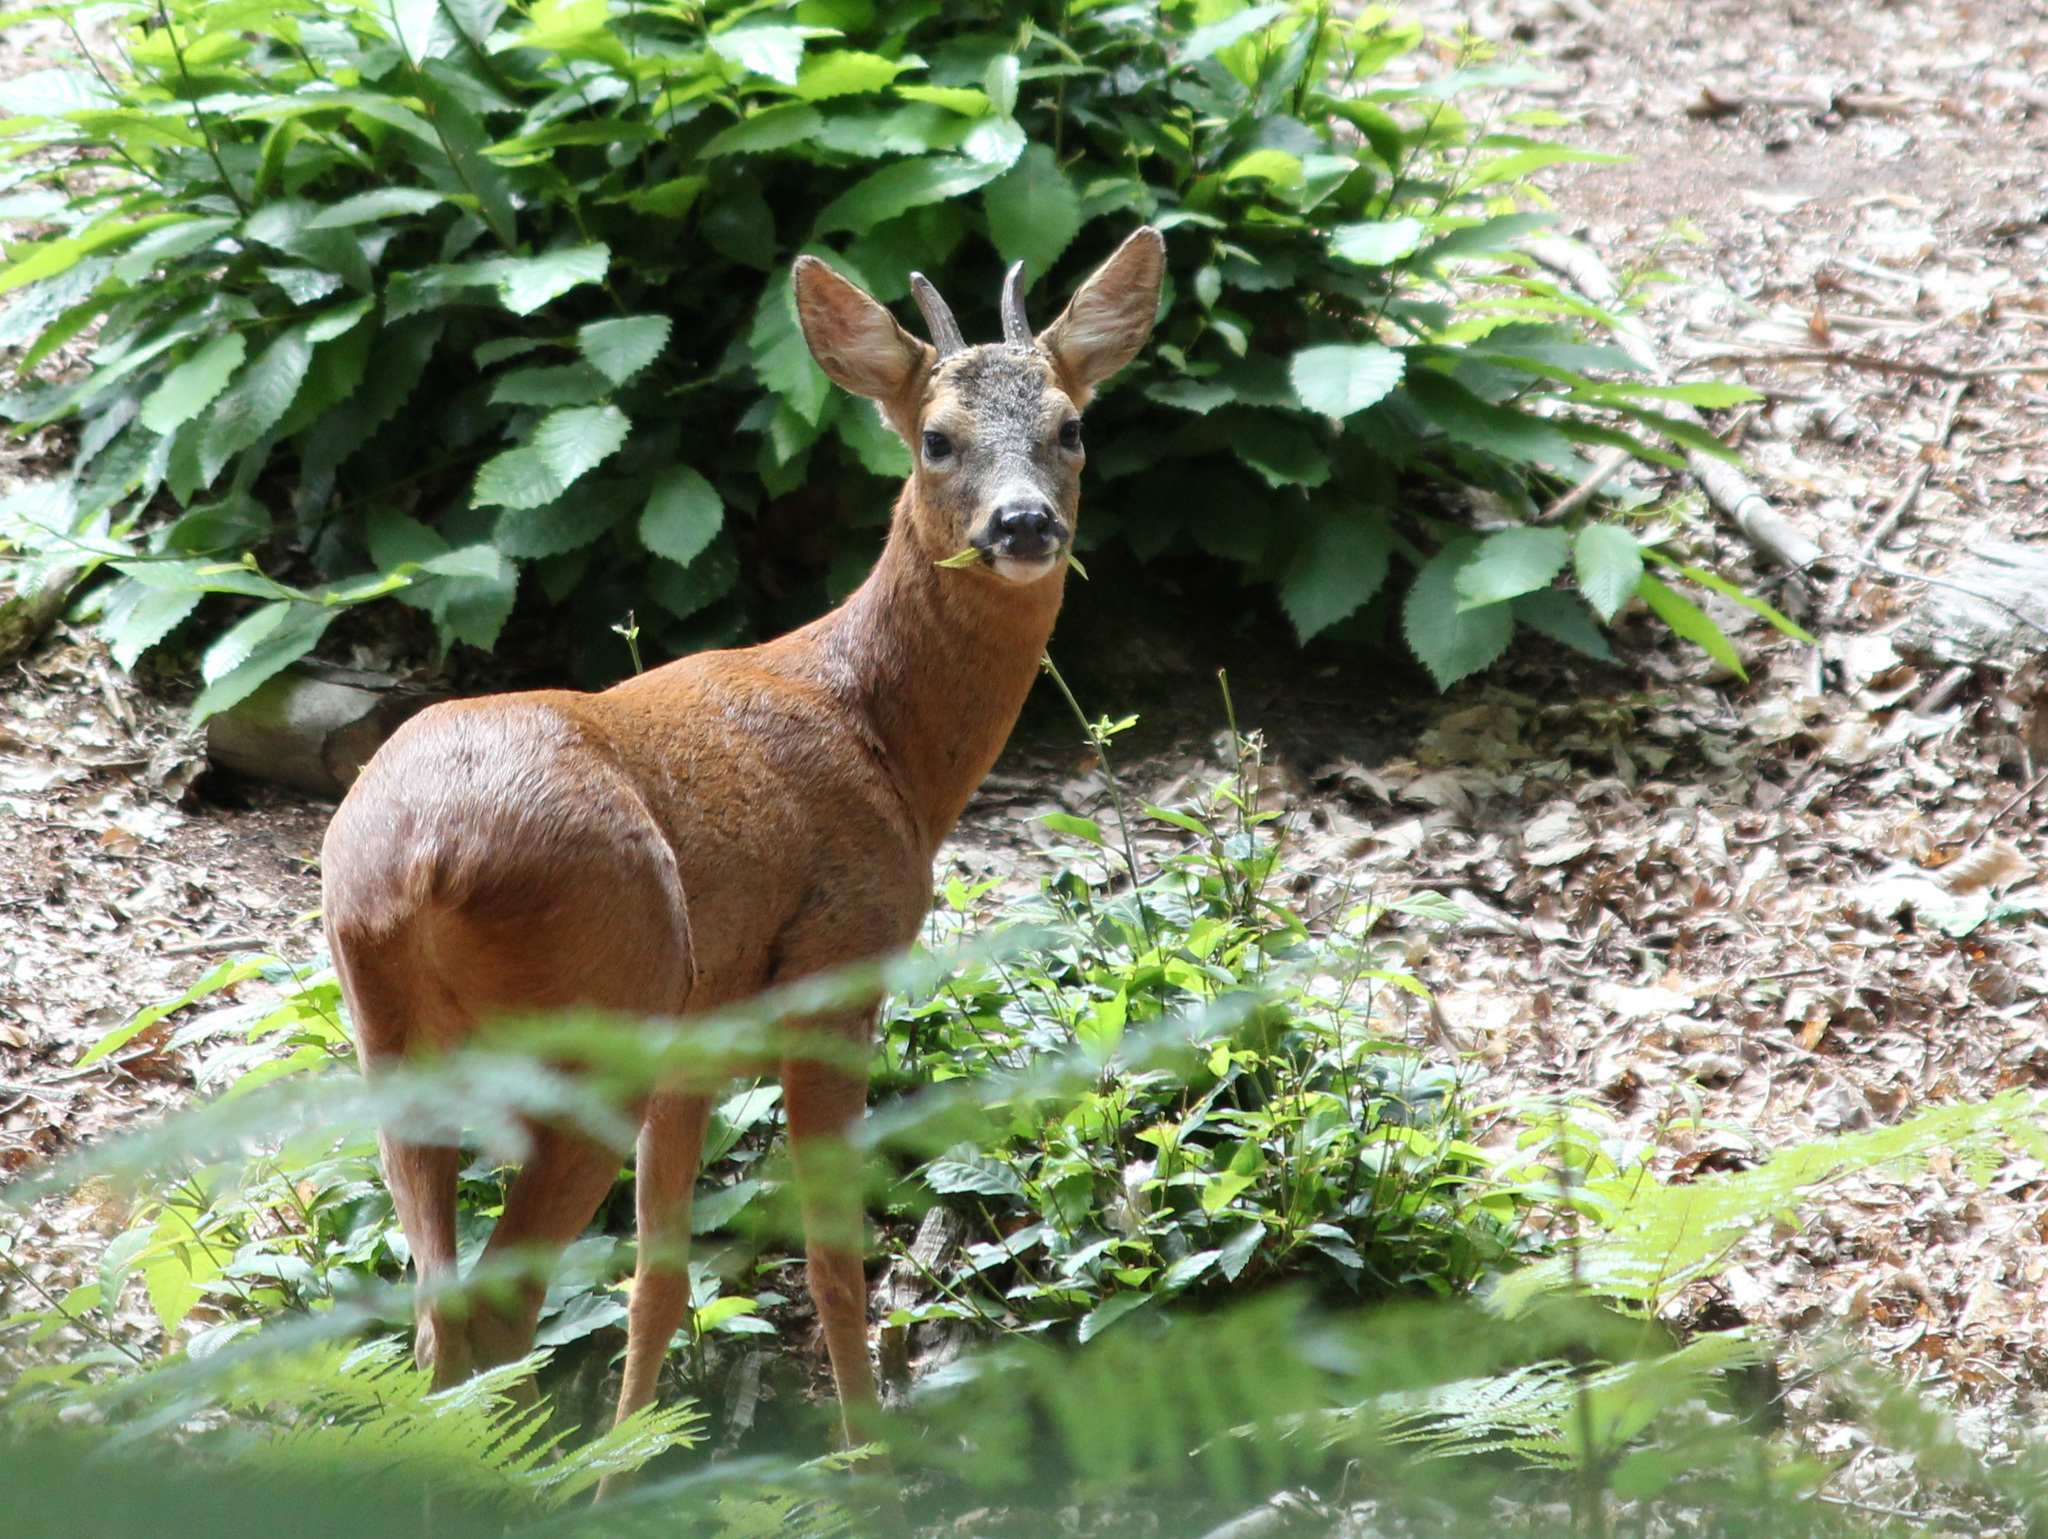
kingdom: Animalia
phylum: Chordata
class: Mammalia
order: Artiodactyla
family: Cervidae
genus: Capreolus
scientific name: Capreolus capreolus
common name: Western roe deer
